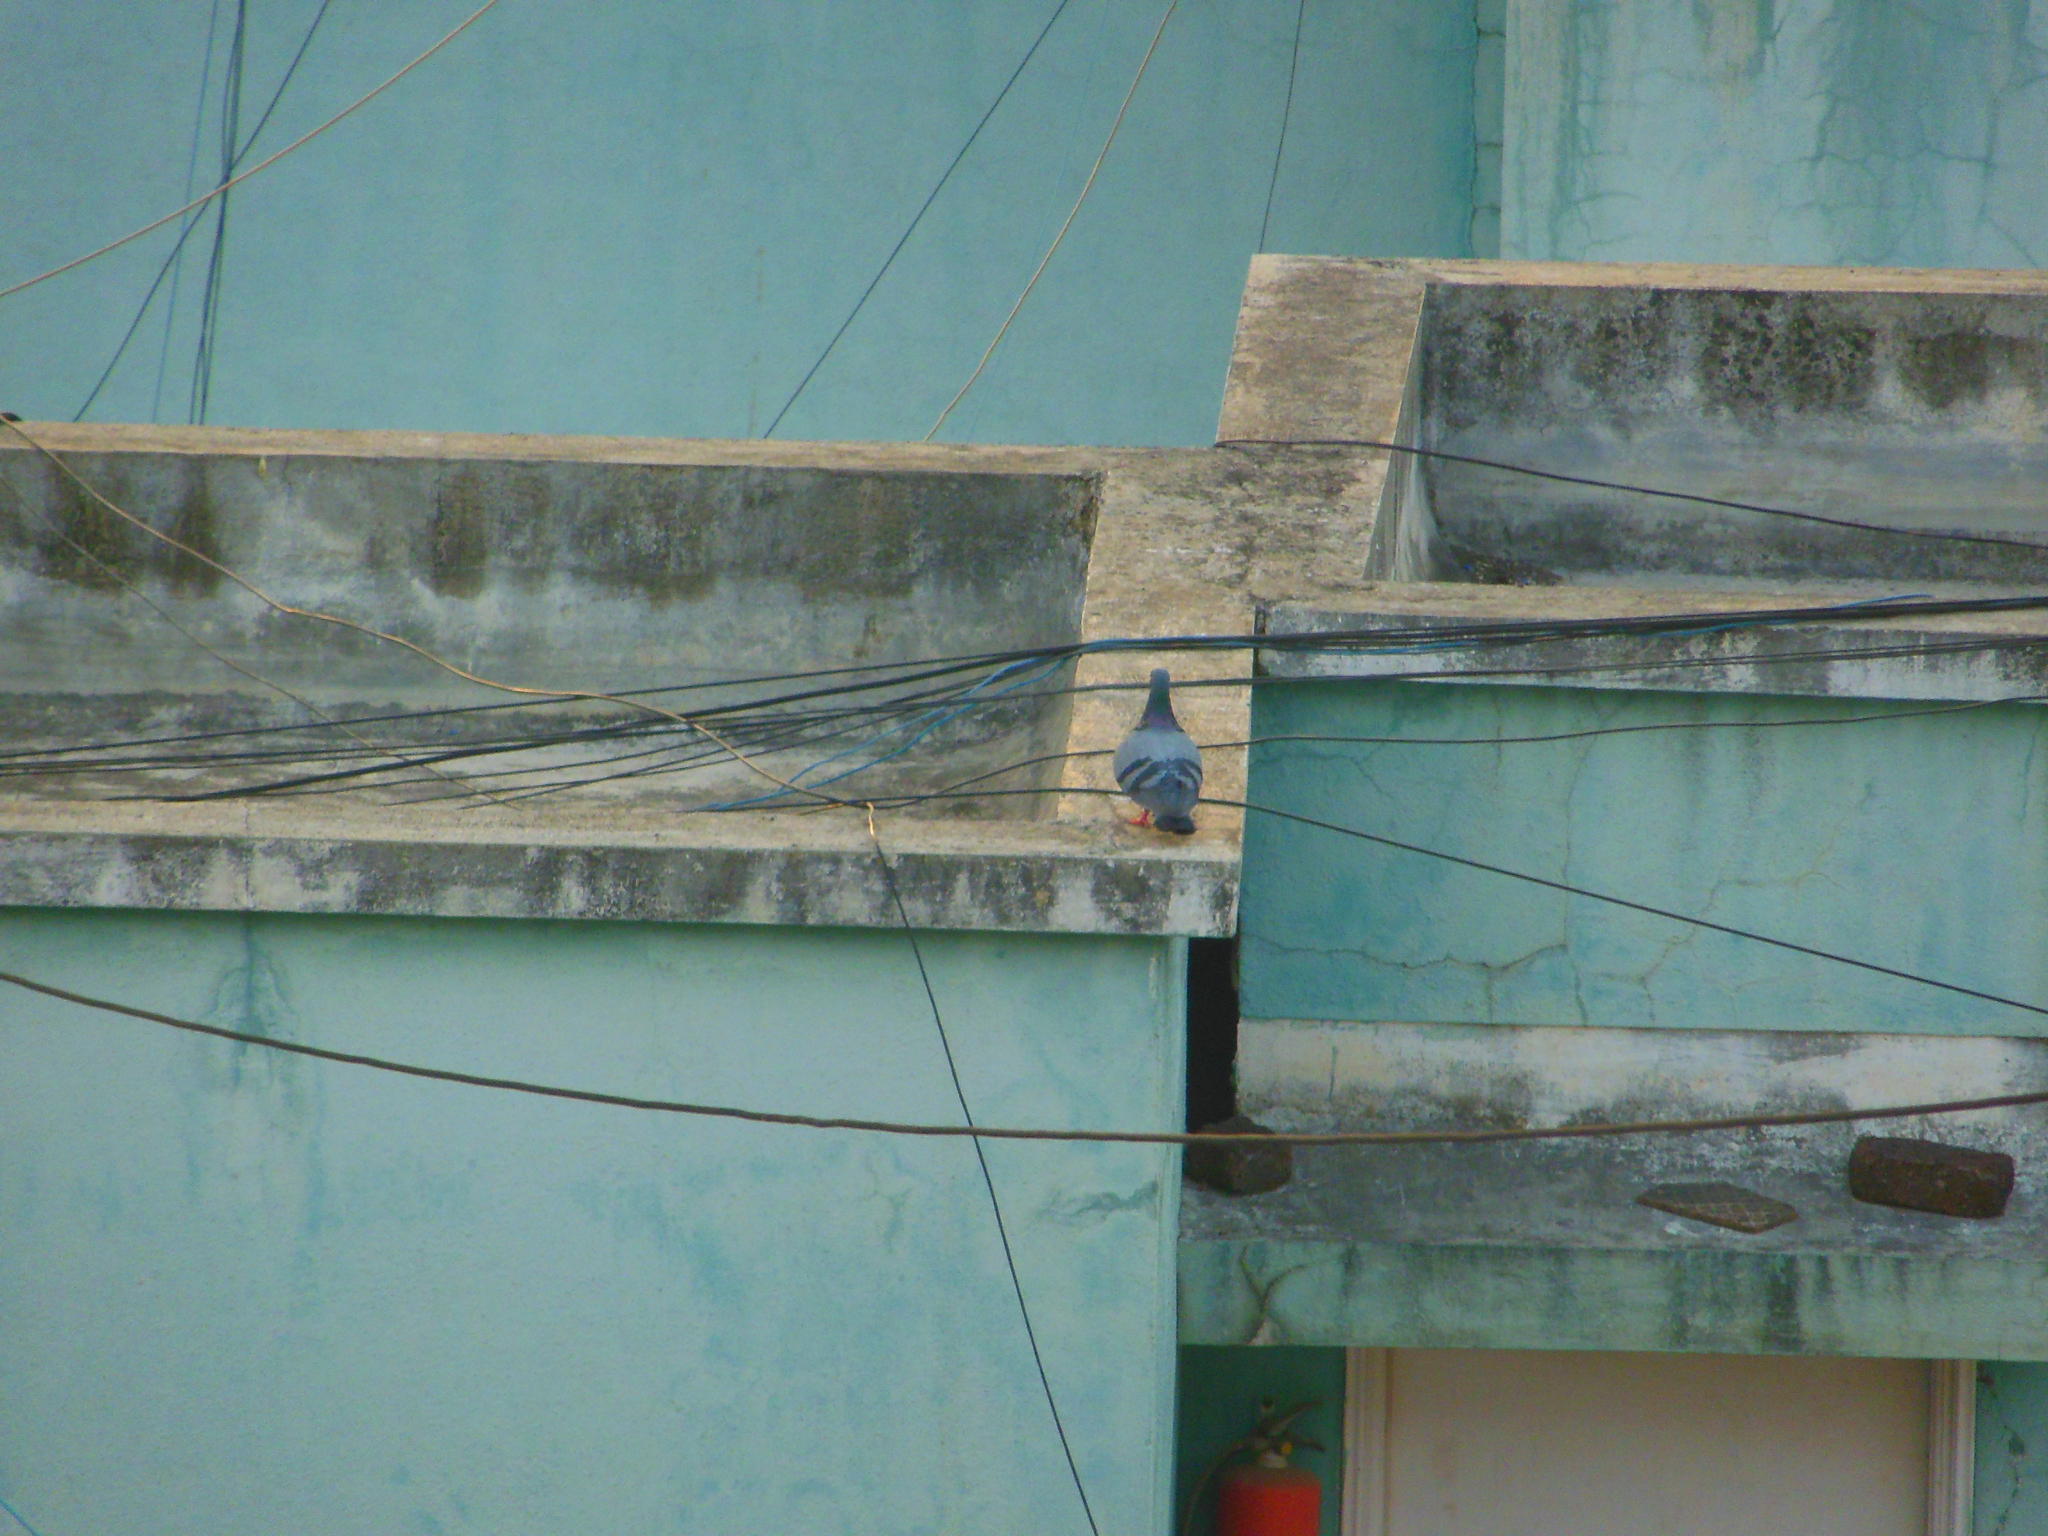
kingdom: Animalia
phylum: Chordata
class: Aves
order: Columbiformes
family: Columbidae
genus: Columba
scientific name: Columba livia
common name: Rock pigeon
